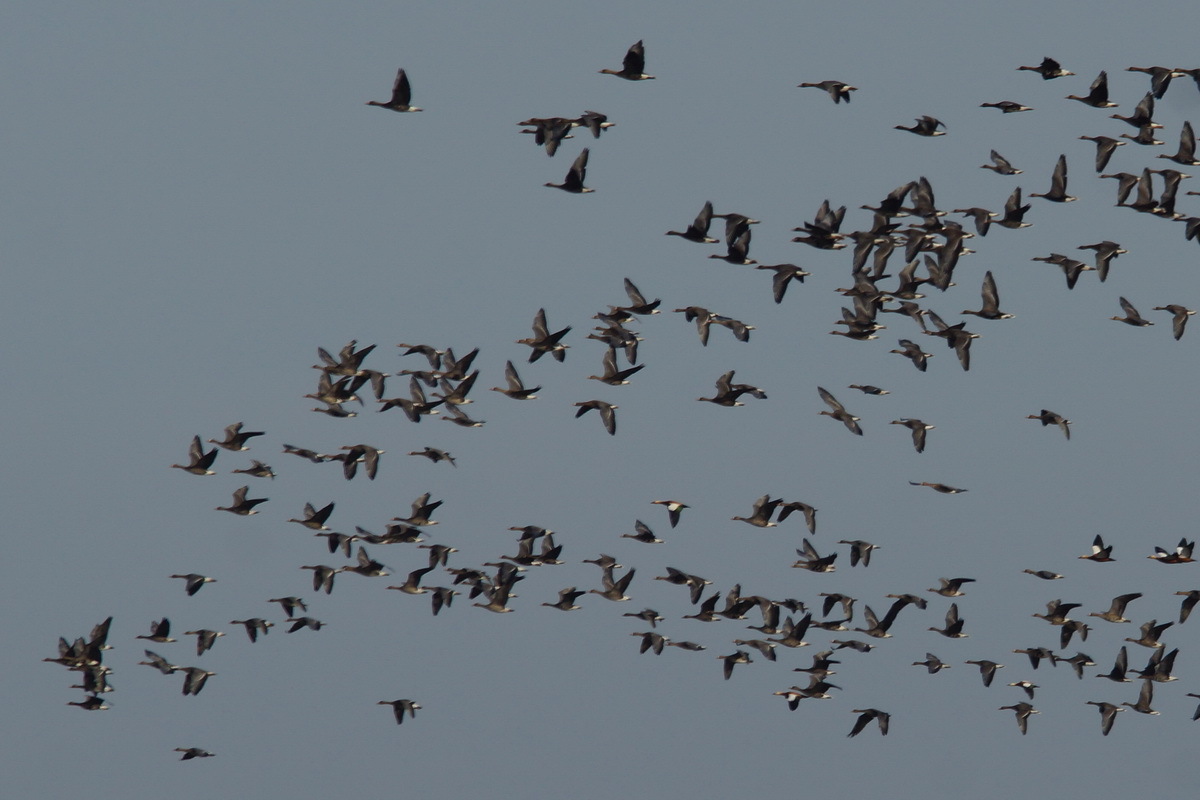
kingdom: Animalia
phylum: Chordata
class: Aves
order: Anseriformes
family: Anatidae
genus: Tadorna
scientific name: Tadorna ferruginea
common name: Ruddy shelduck
